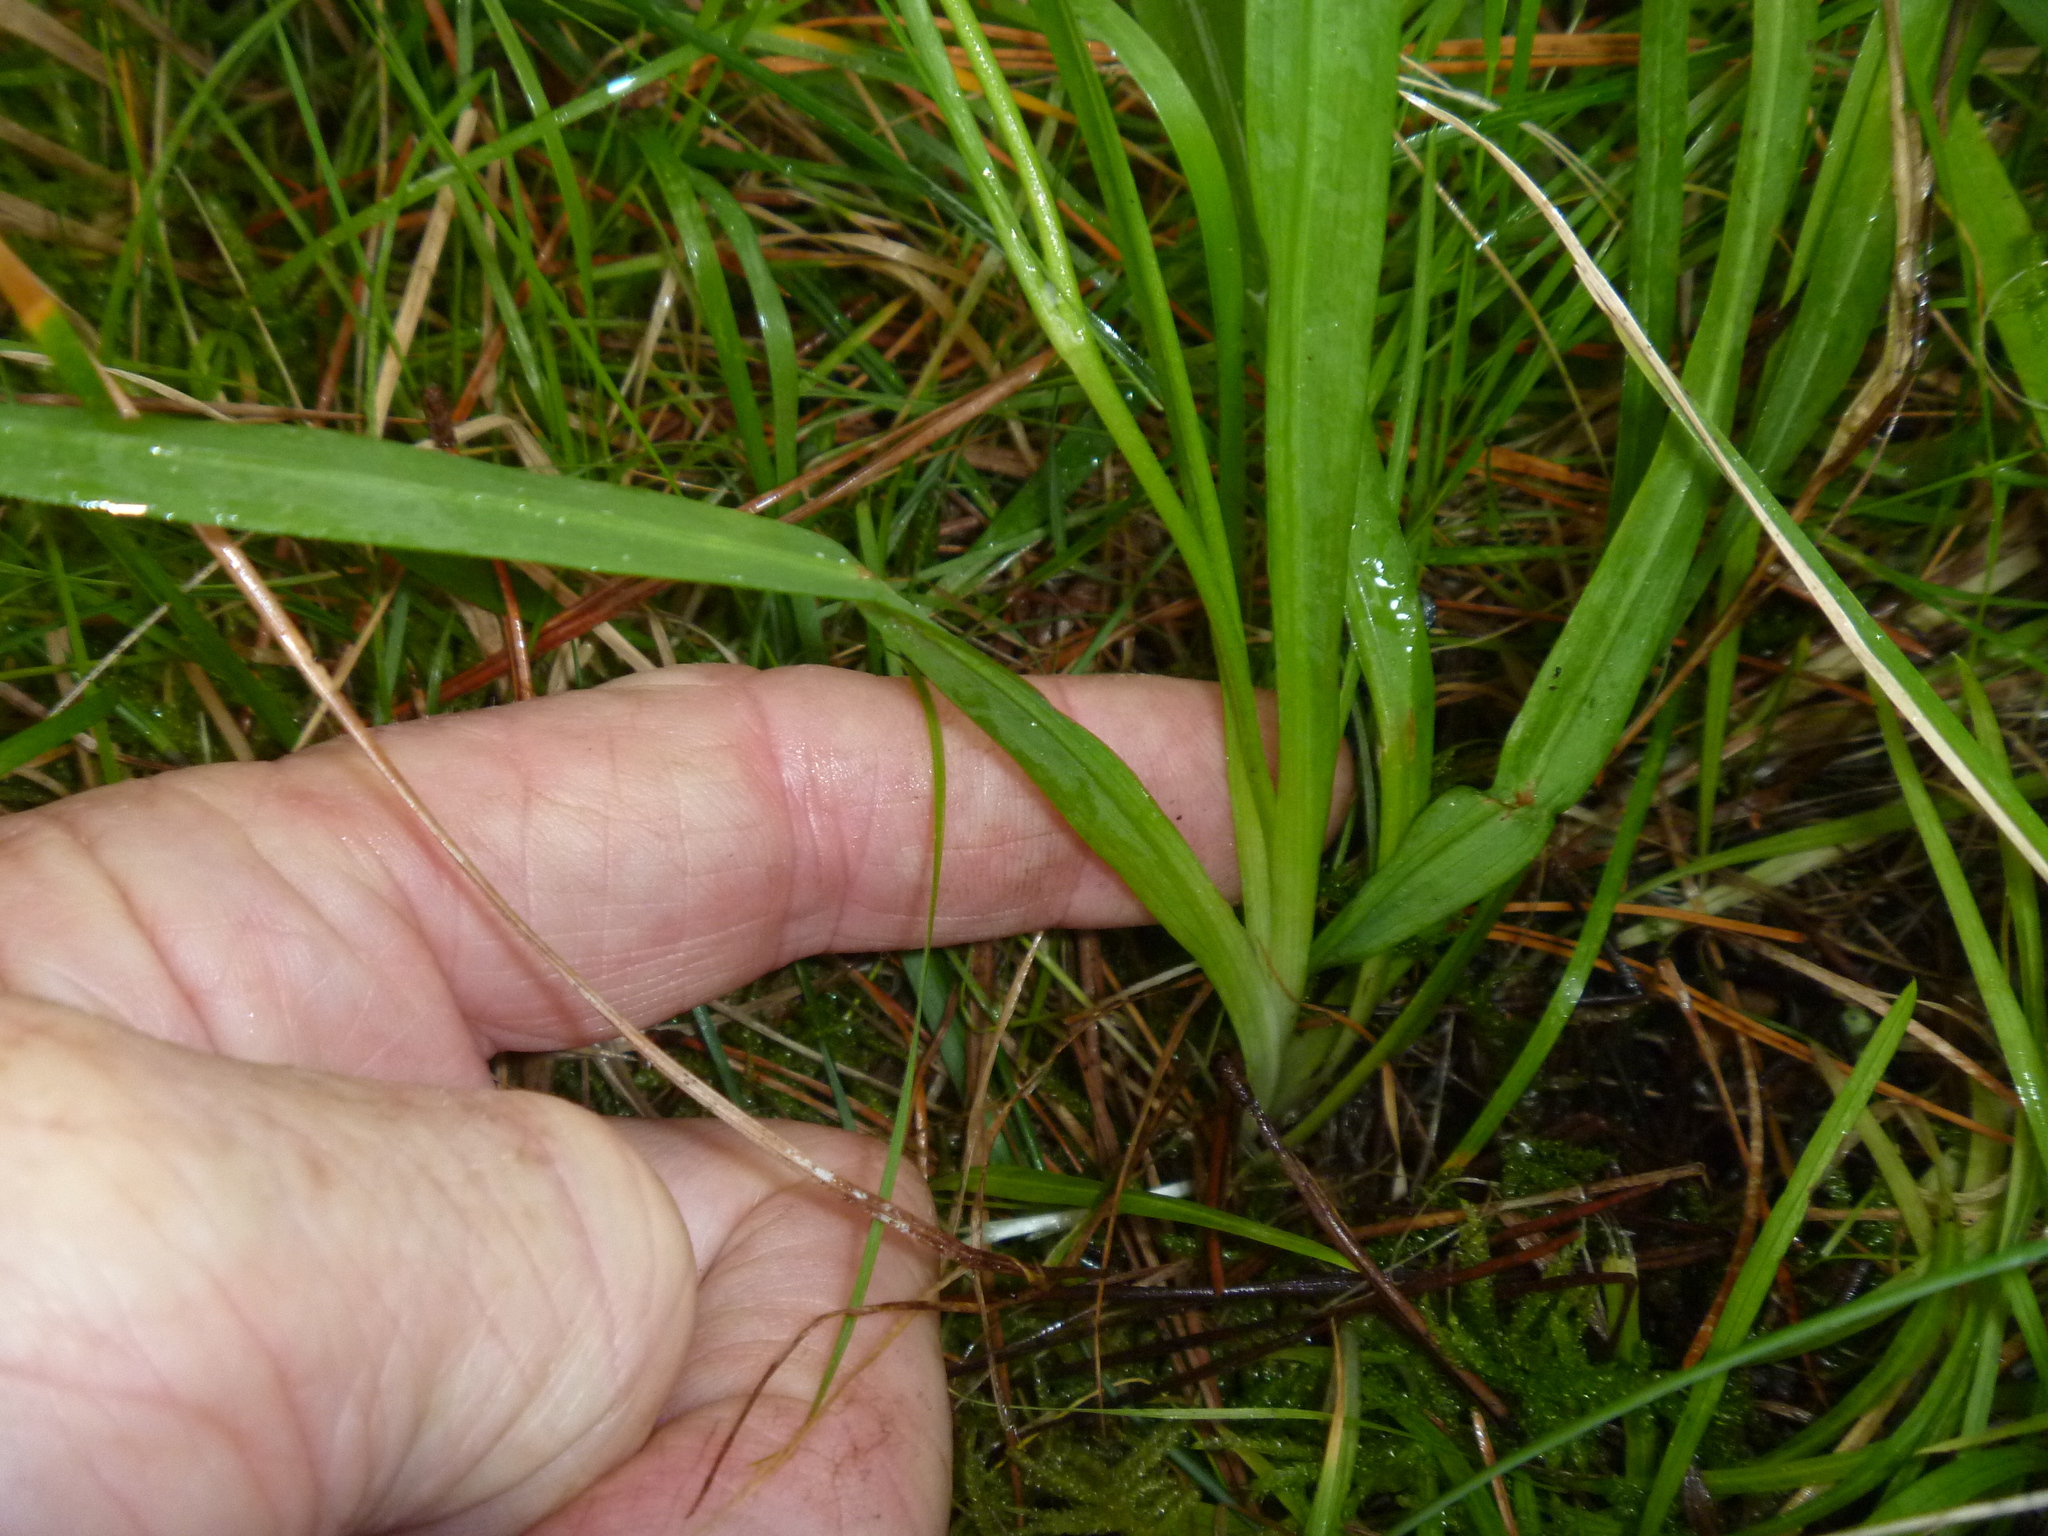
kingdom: Plantae
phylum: Tracheophyta
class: Liliopsida
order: Asparagales
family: Iridaceae
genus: Freesia
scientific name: Freesia leichtlinii
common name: Freesia
